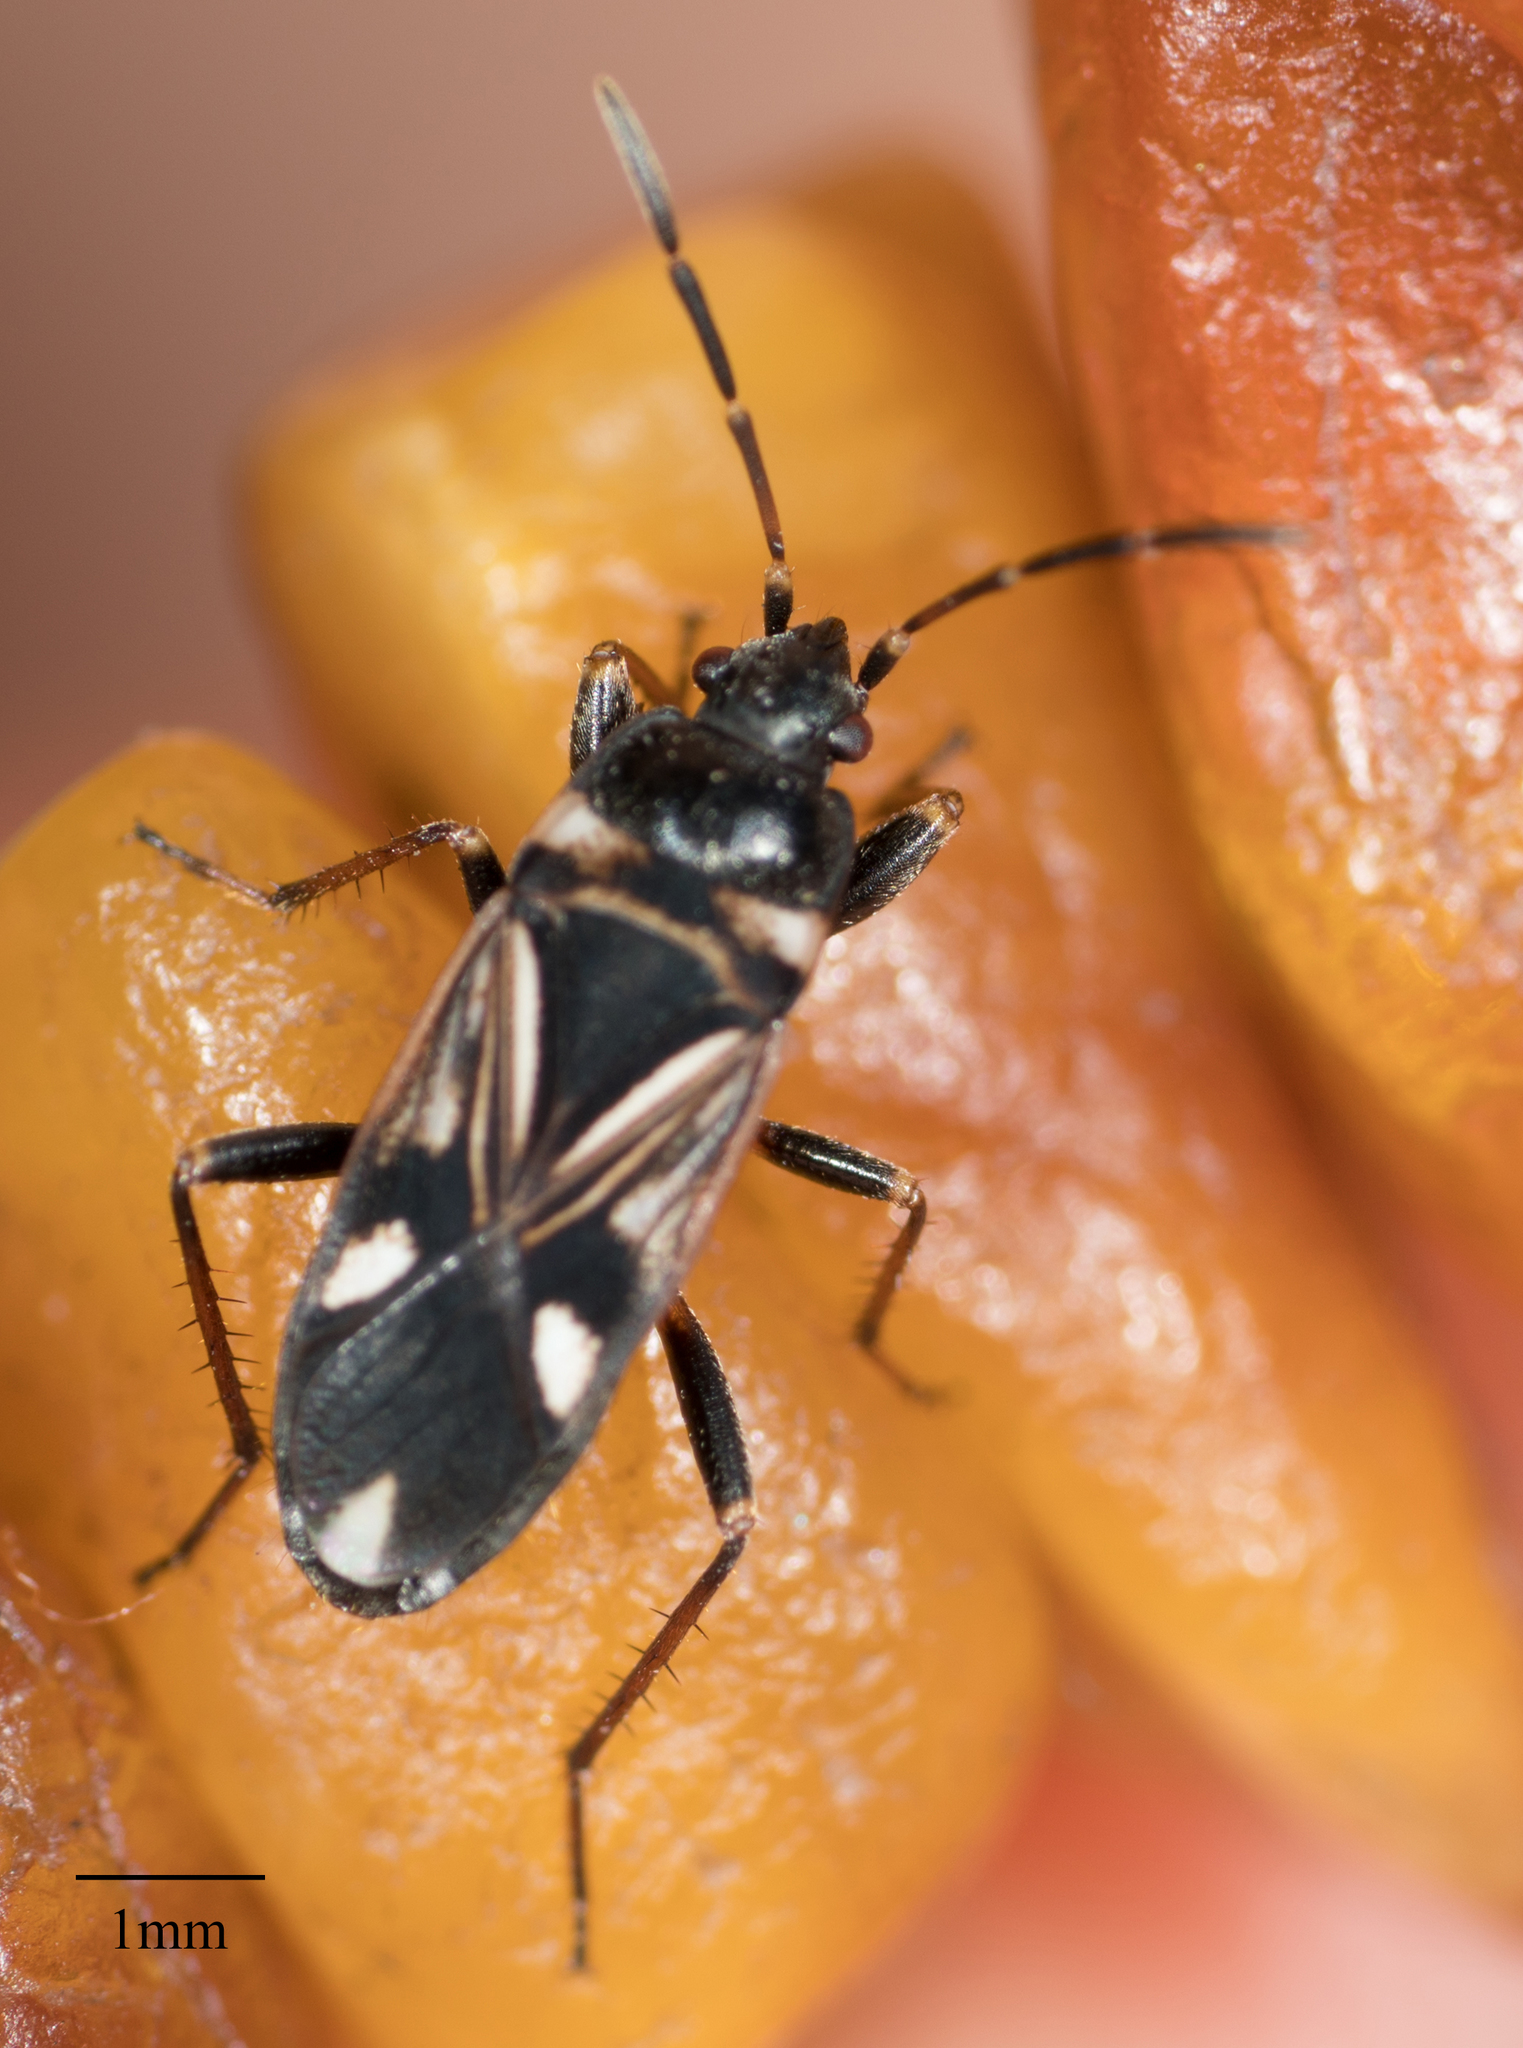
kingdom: Animalia
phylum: Arthropoda
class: Insecta
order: Hemiptera
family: Rhyparochromidae
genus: Raglius
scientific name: Raglius alboacuminatus
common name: Dirt-colored seed bug
